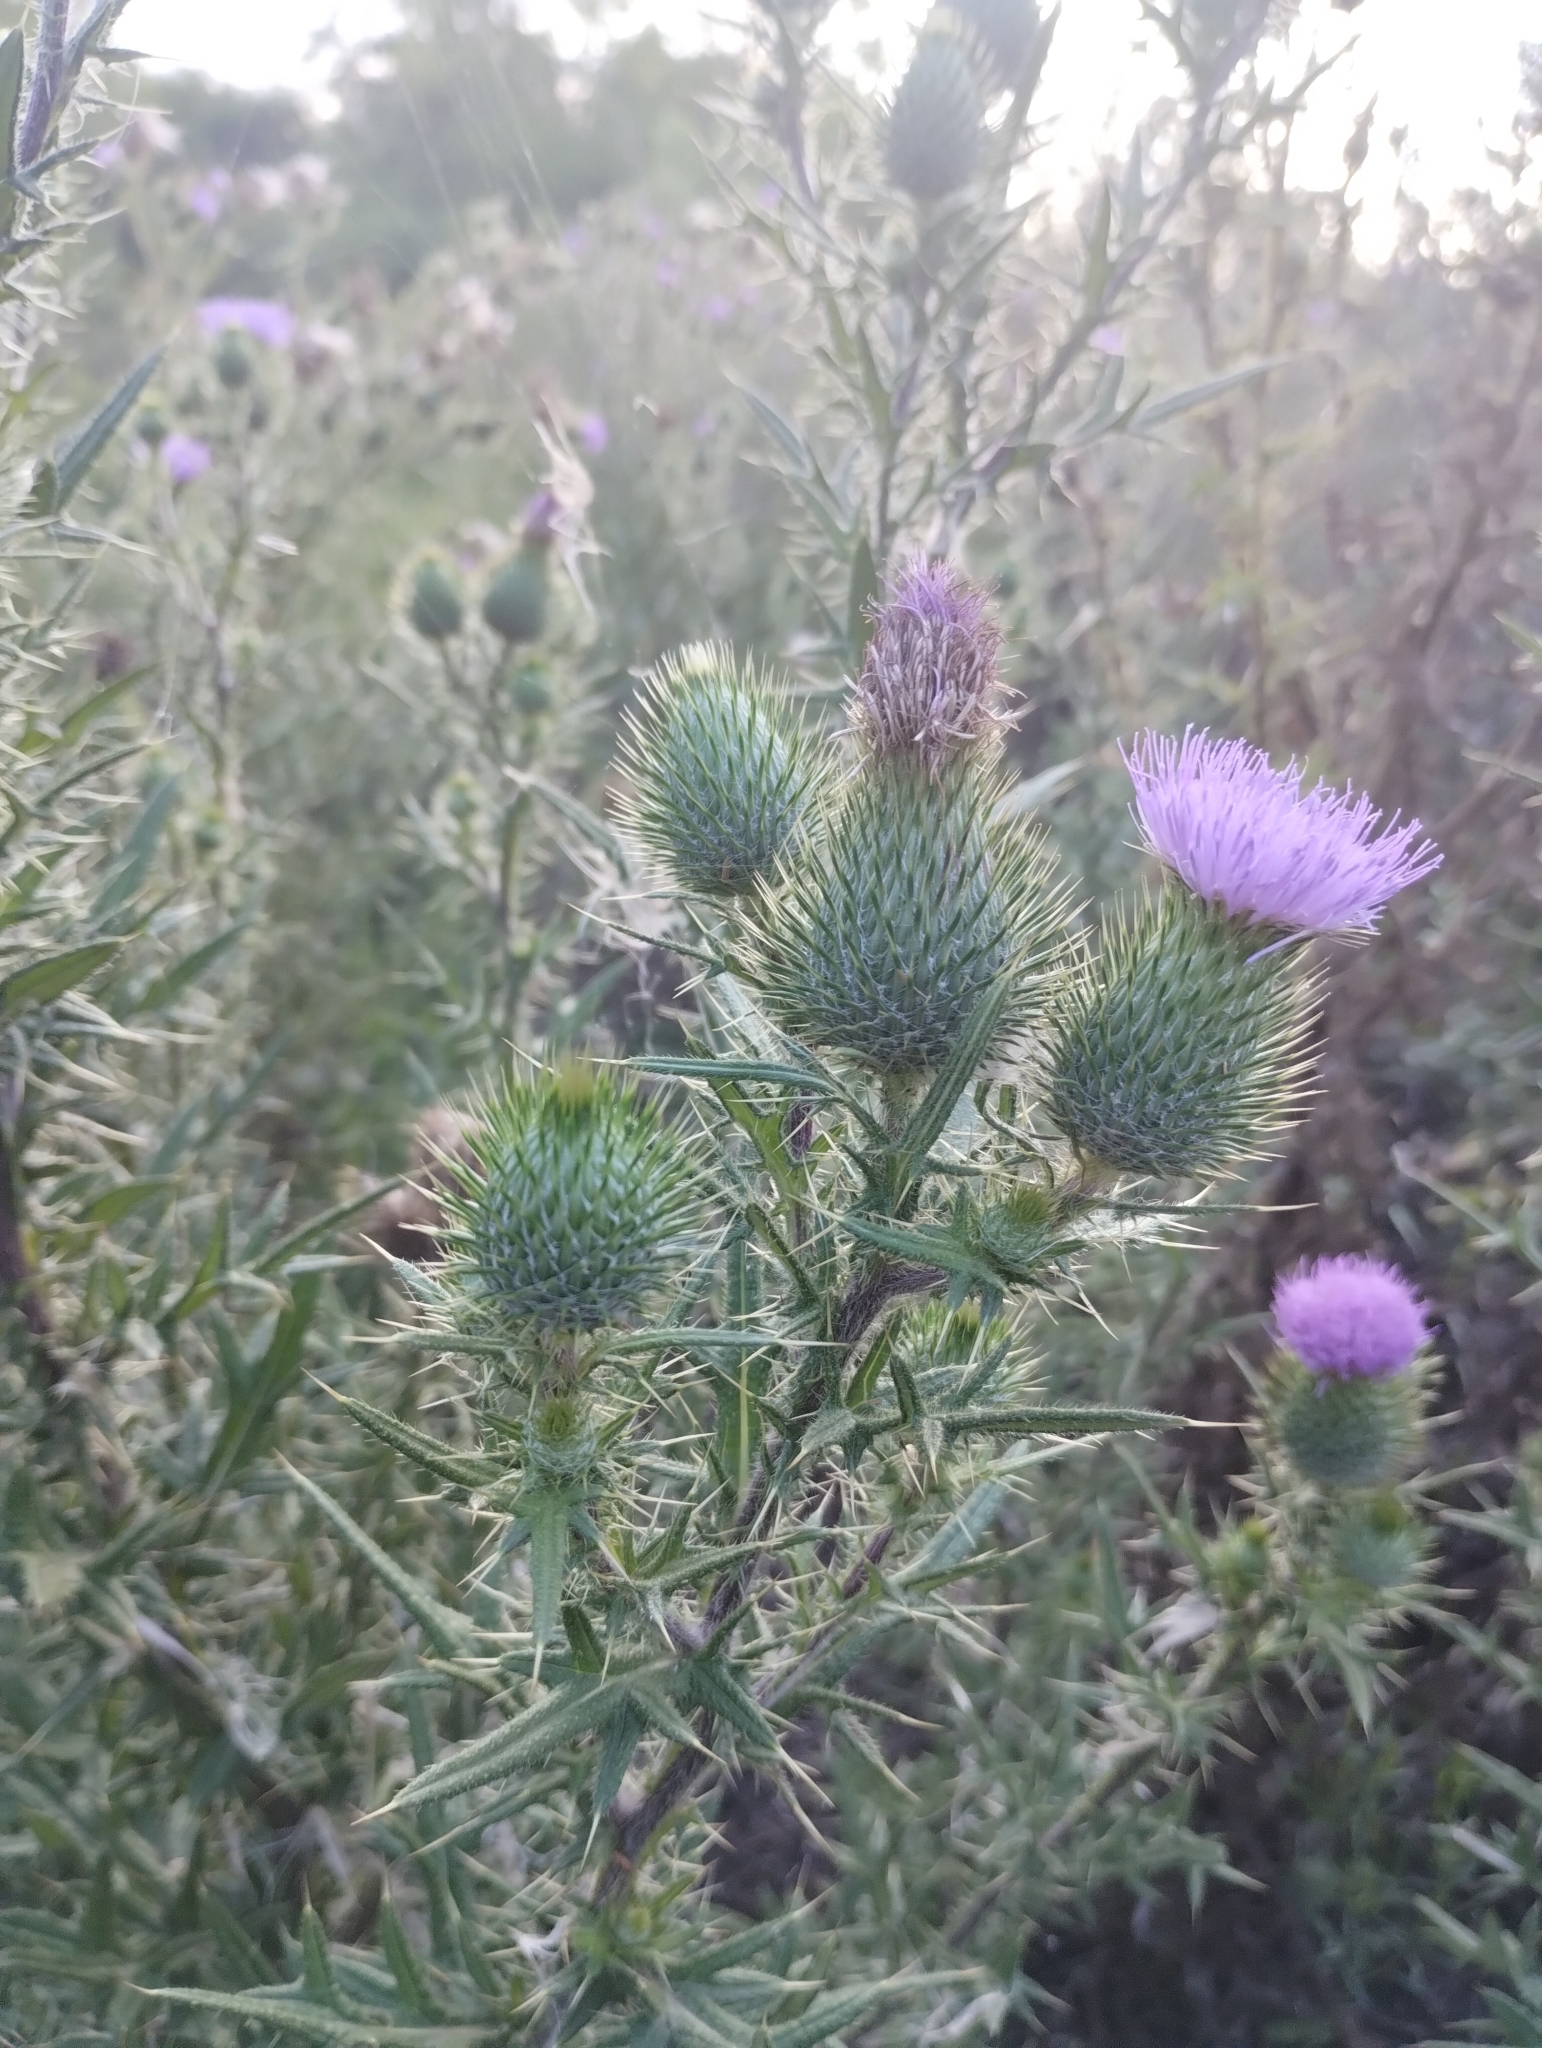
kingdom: Plantae
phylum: Tracheophyta
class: Magnoliopsida
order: Asterales
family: Asteraceae
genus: Cirsium
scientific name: Cirsium vulgare
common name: Bull thistle
